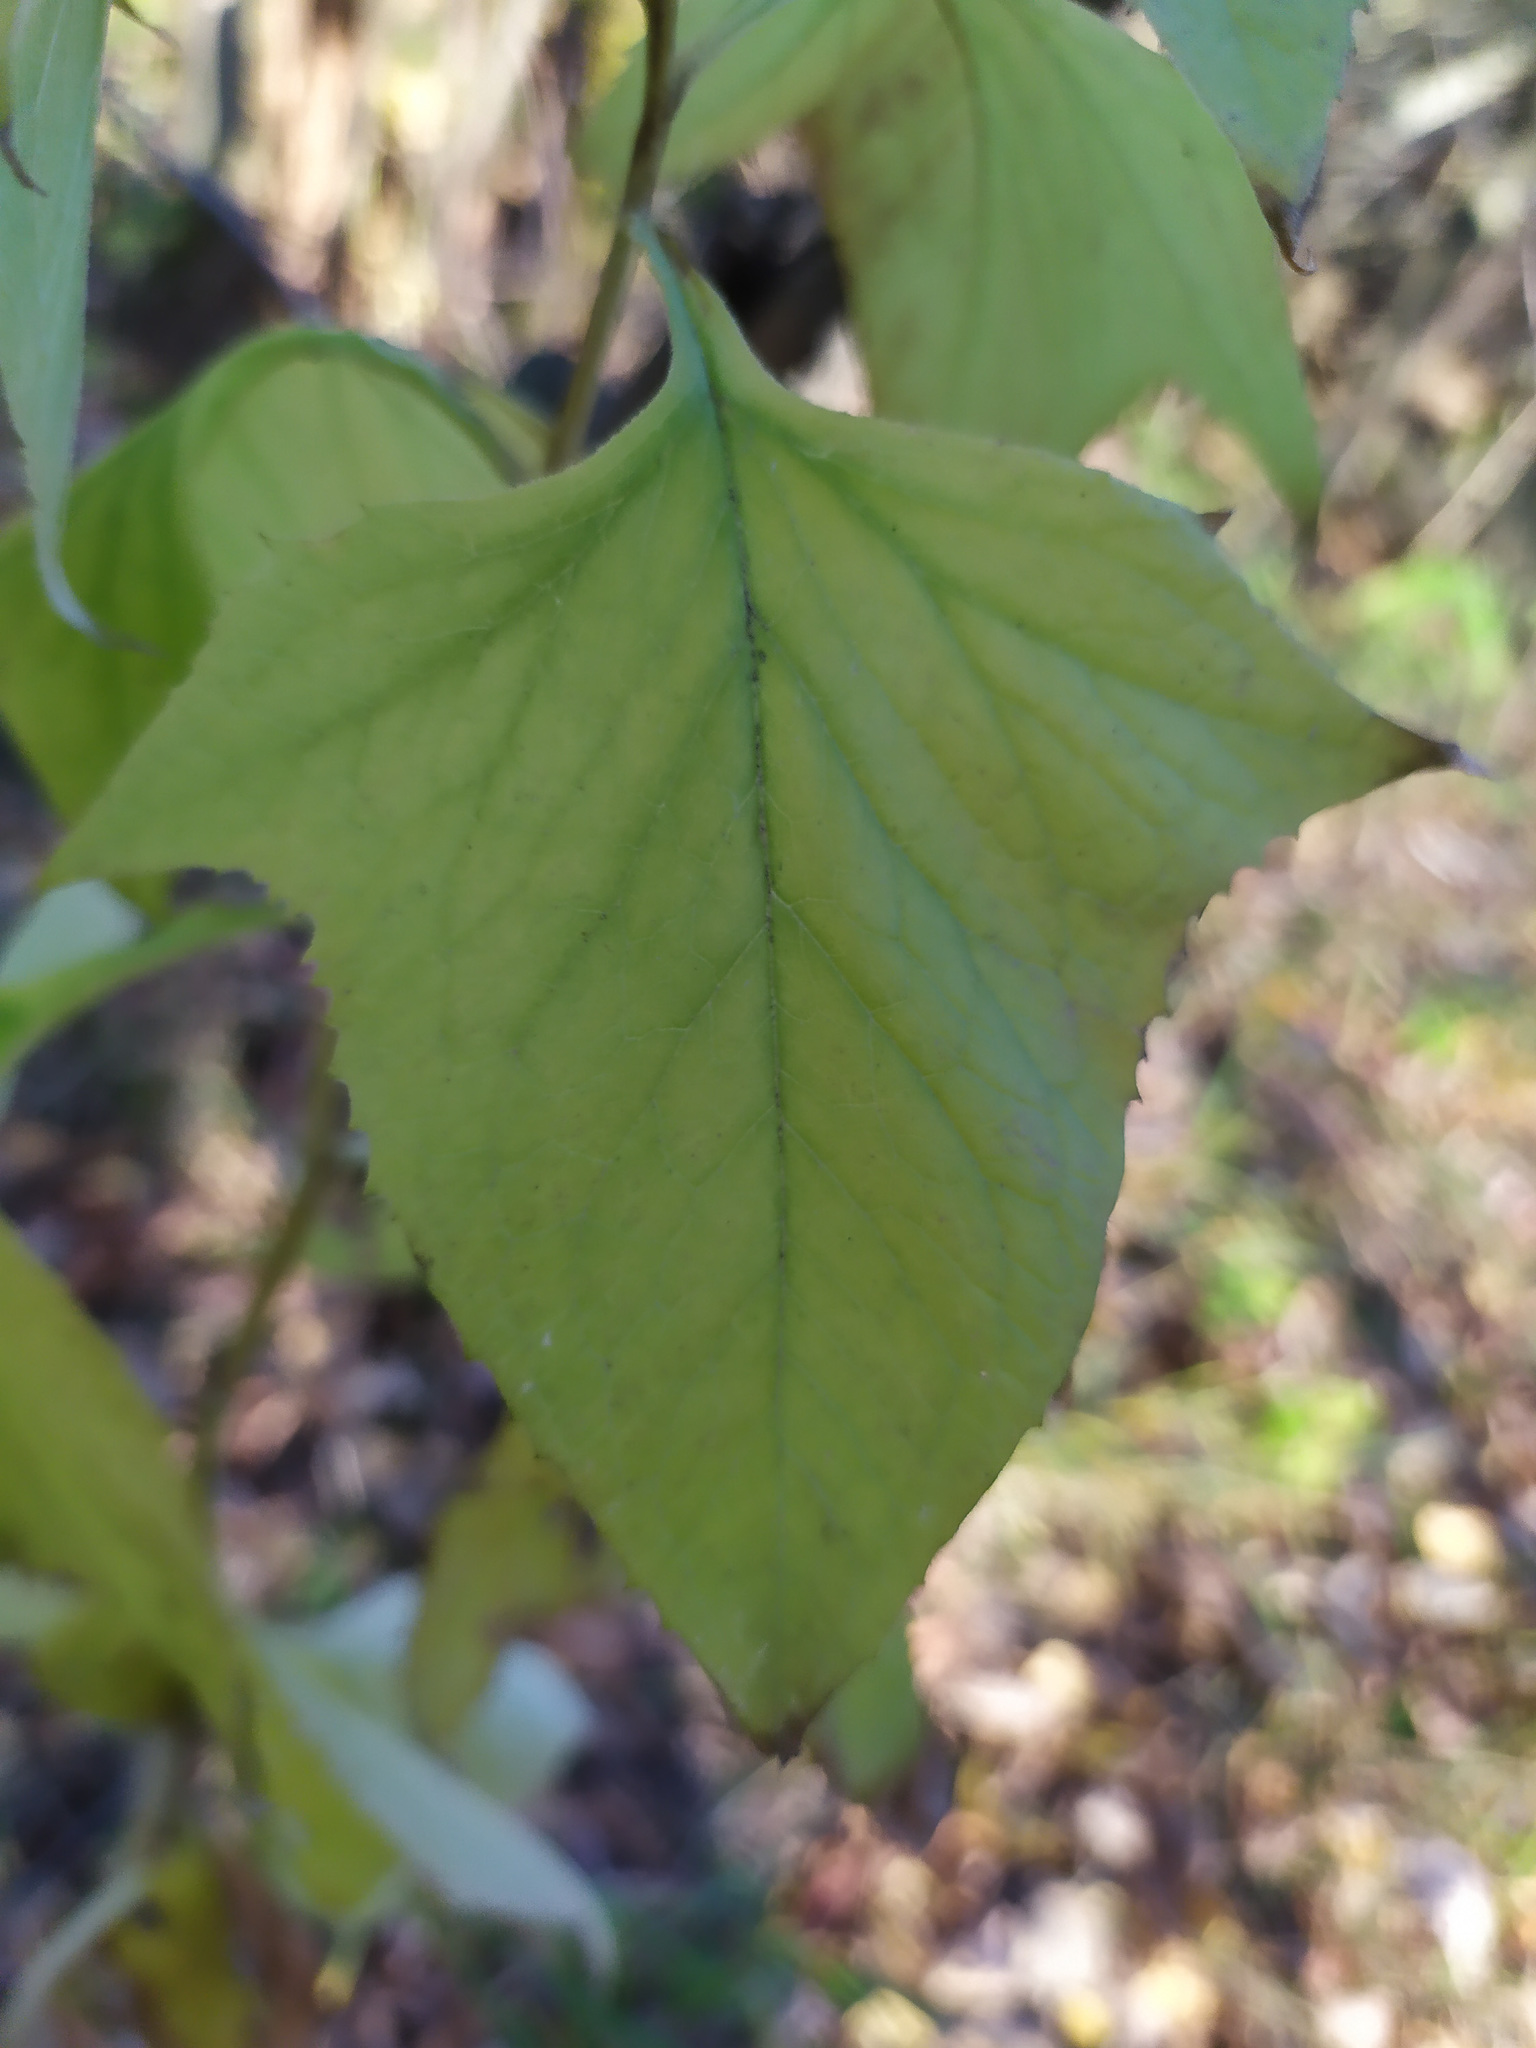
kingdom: Plantae
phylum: Tracheophyta
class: Magnoliopsida
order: Asterales
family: Asteraceae
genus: Parasenecio
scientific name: Parasenecio hastatus
